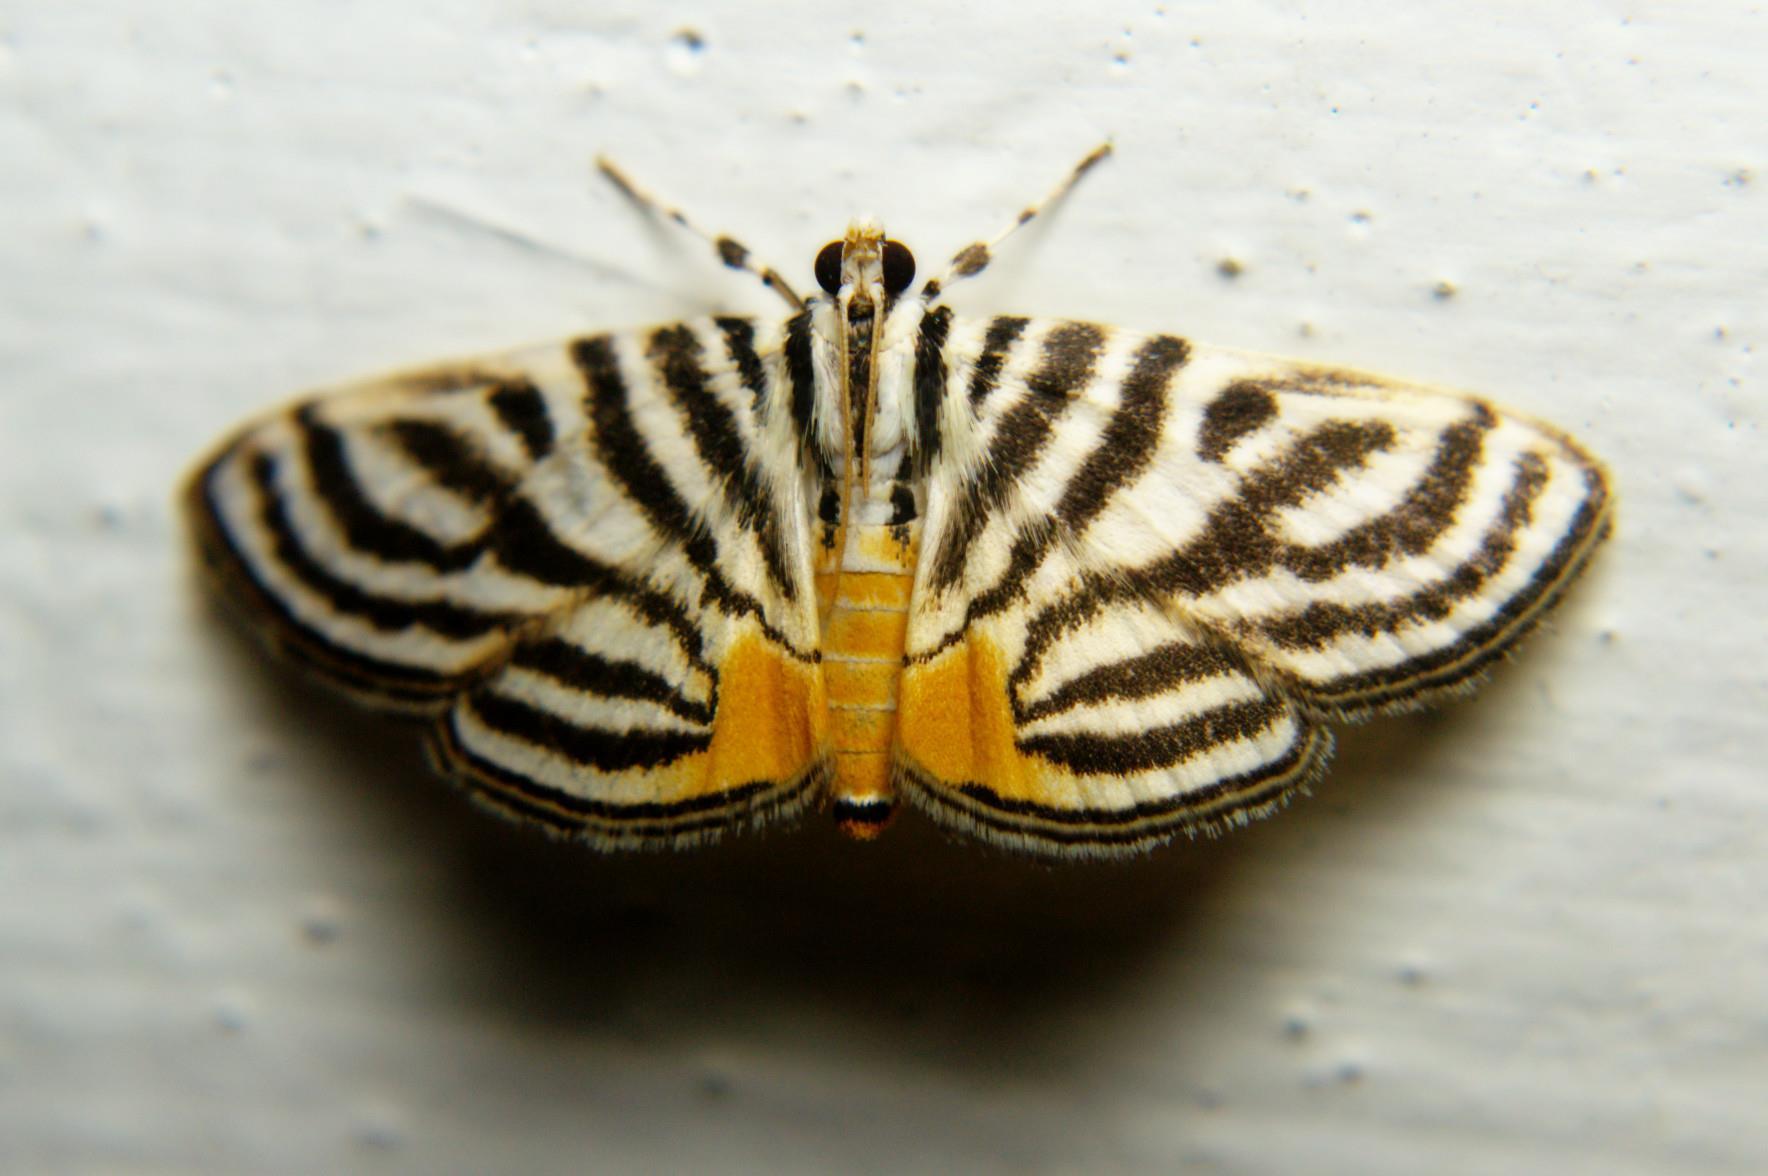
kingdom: Animalia
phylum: Arthropoda
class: Insecta
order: Lepidoptera
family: Crambidae
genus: Dichocrocis
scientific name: Dichocrocis rigidalis
